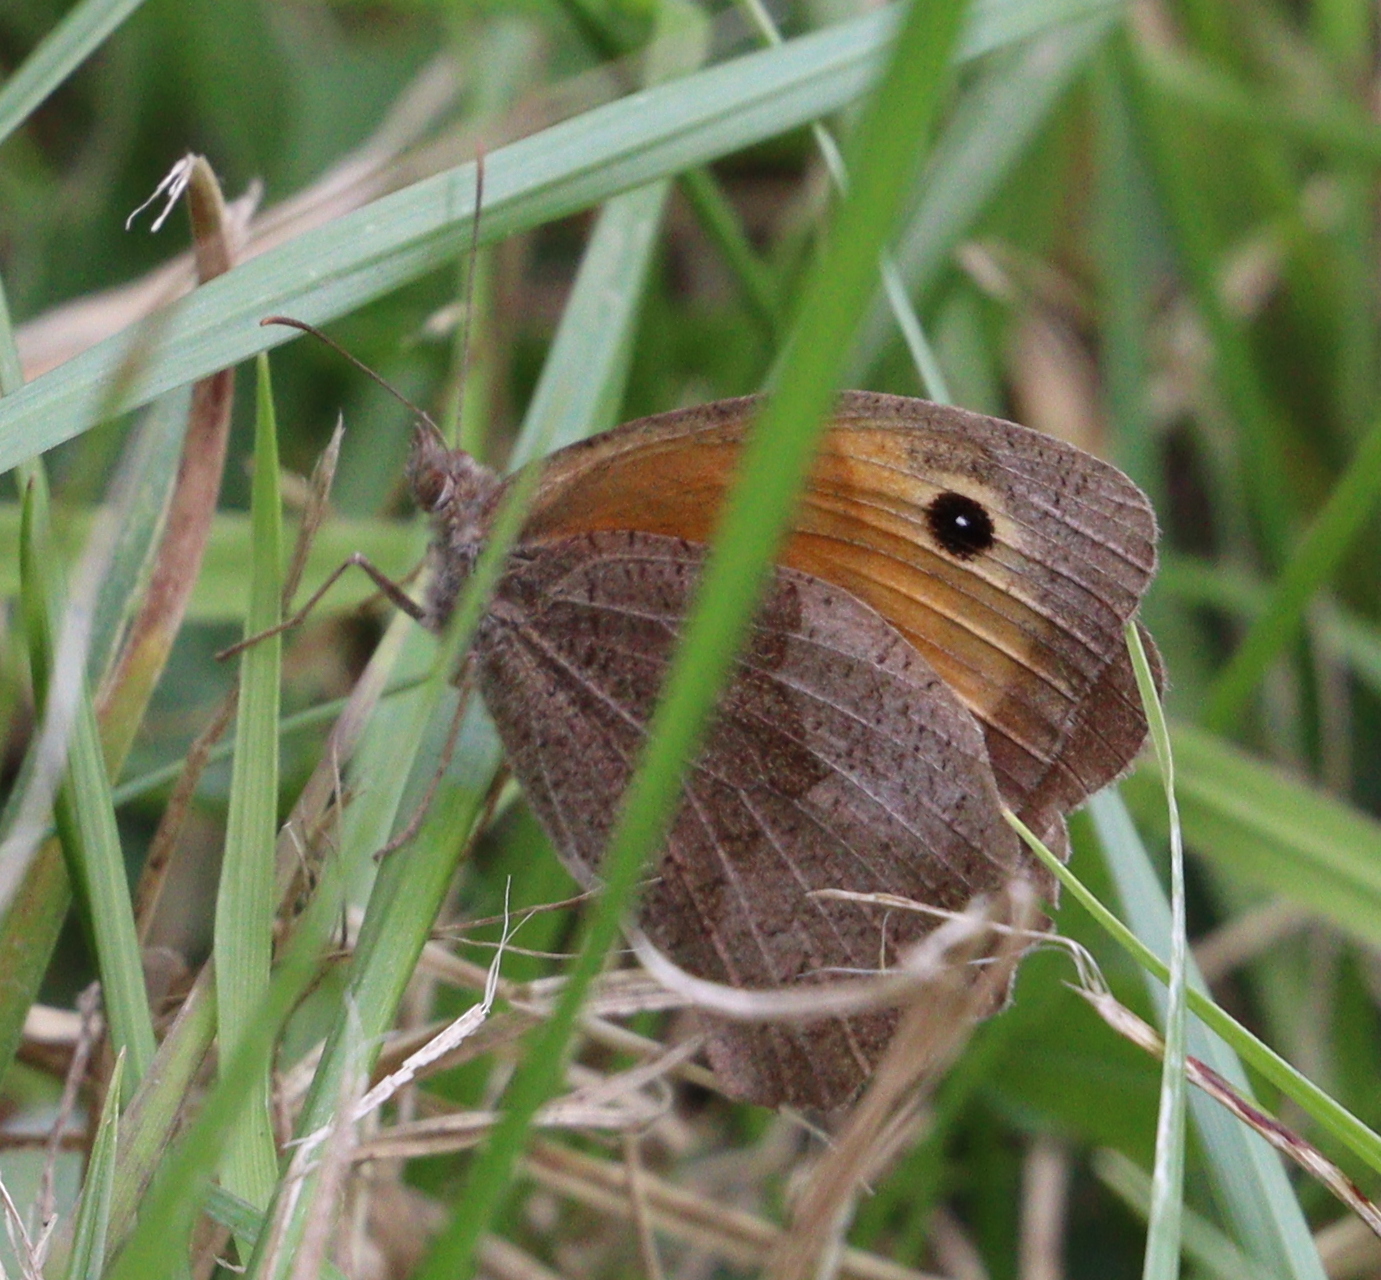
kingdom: Animalia
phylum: Arthropoda
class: Insecta
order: Lepidoptera
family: Nymphalidae
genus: Maniola
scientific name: Maniola jurtina
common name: Meadow brown
